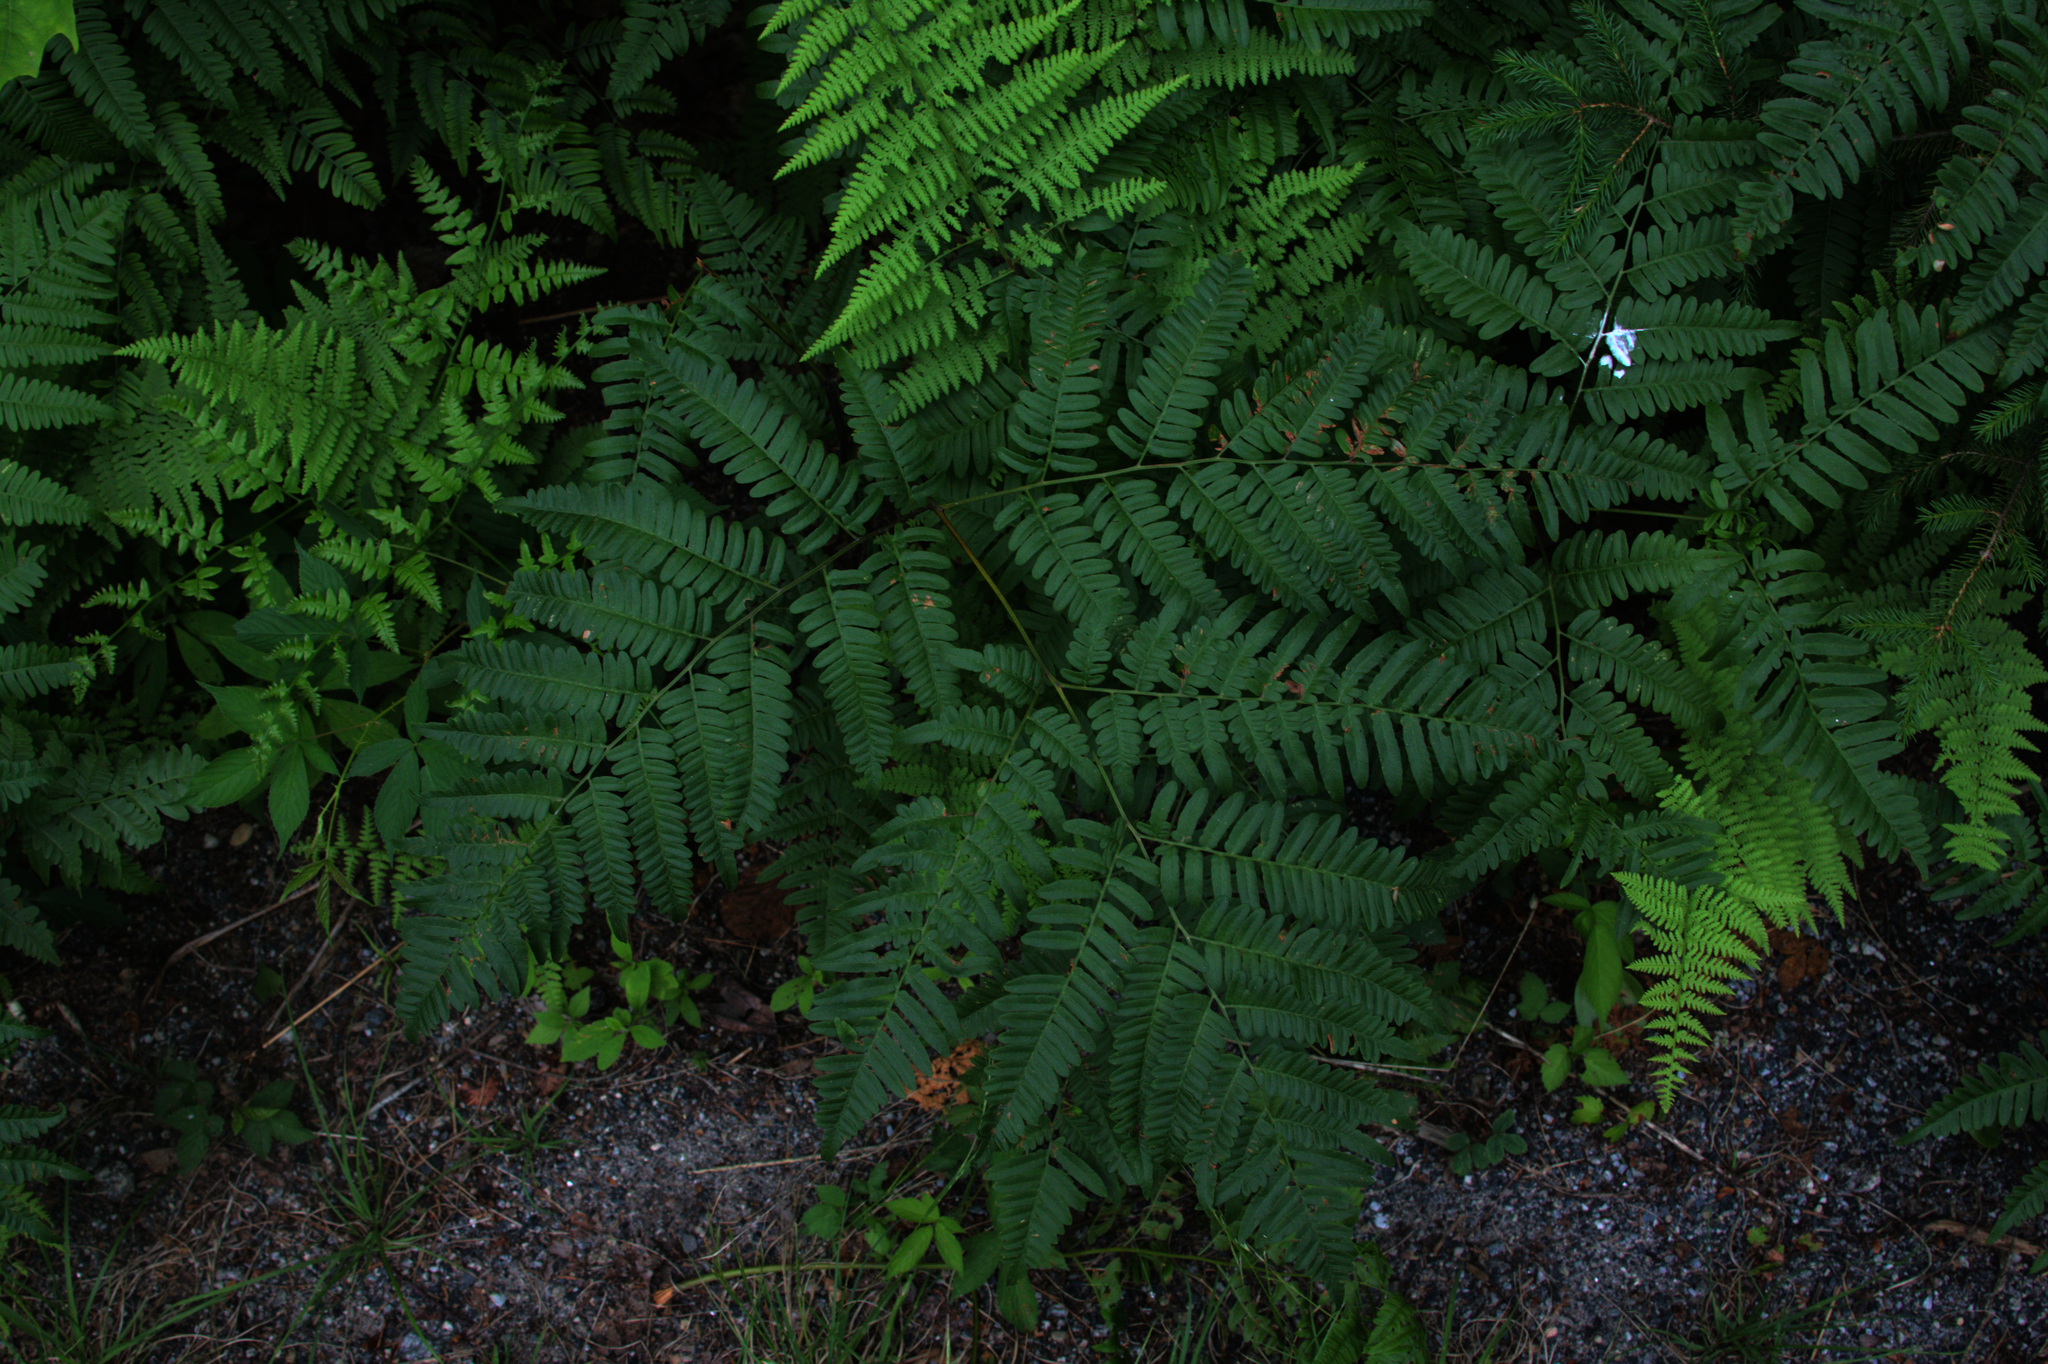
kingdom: Plantae
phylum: Tracheophyta
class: Polypodiopsida
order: Polypodiales
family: Dennstaedtiaceae
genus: Pteridium
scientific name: Pteridium aquilinum
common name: Bracken
